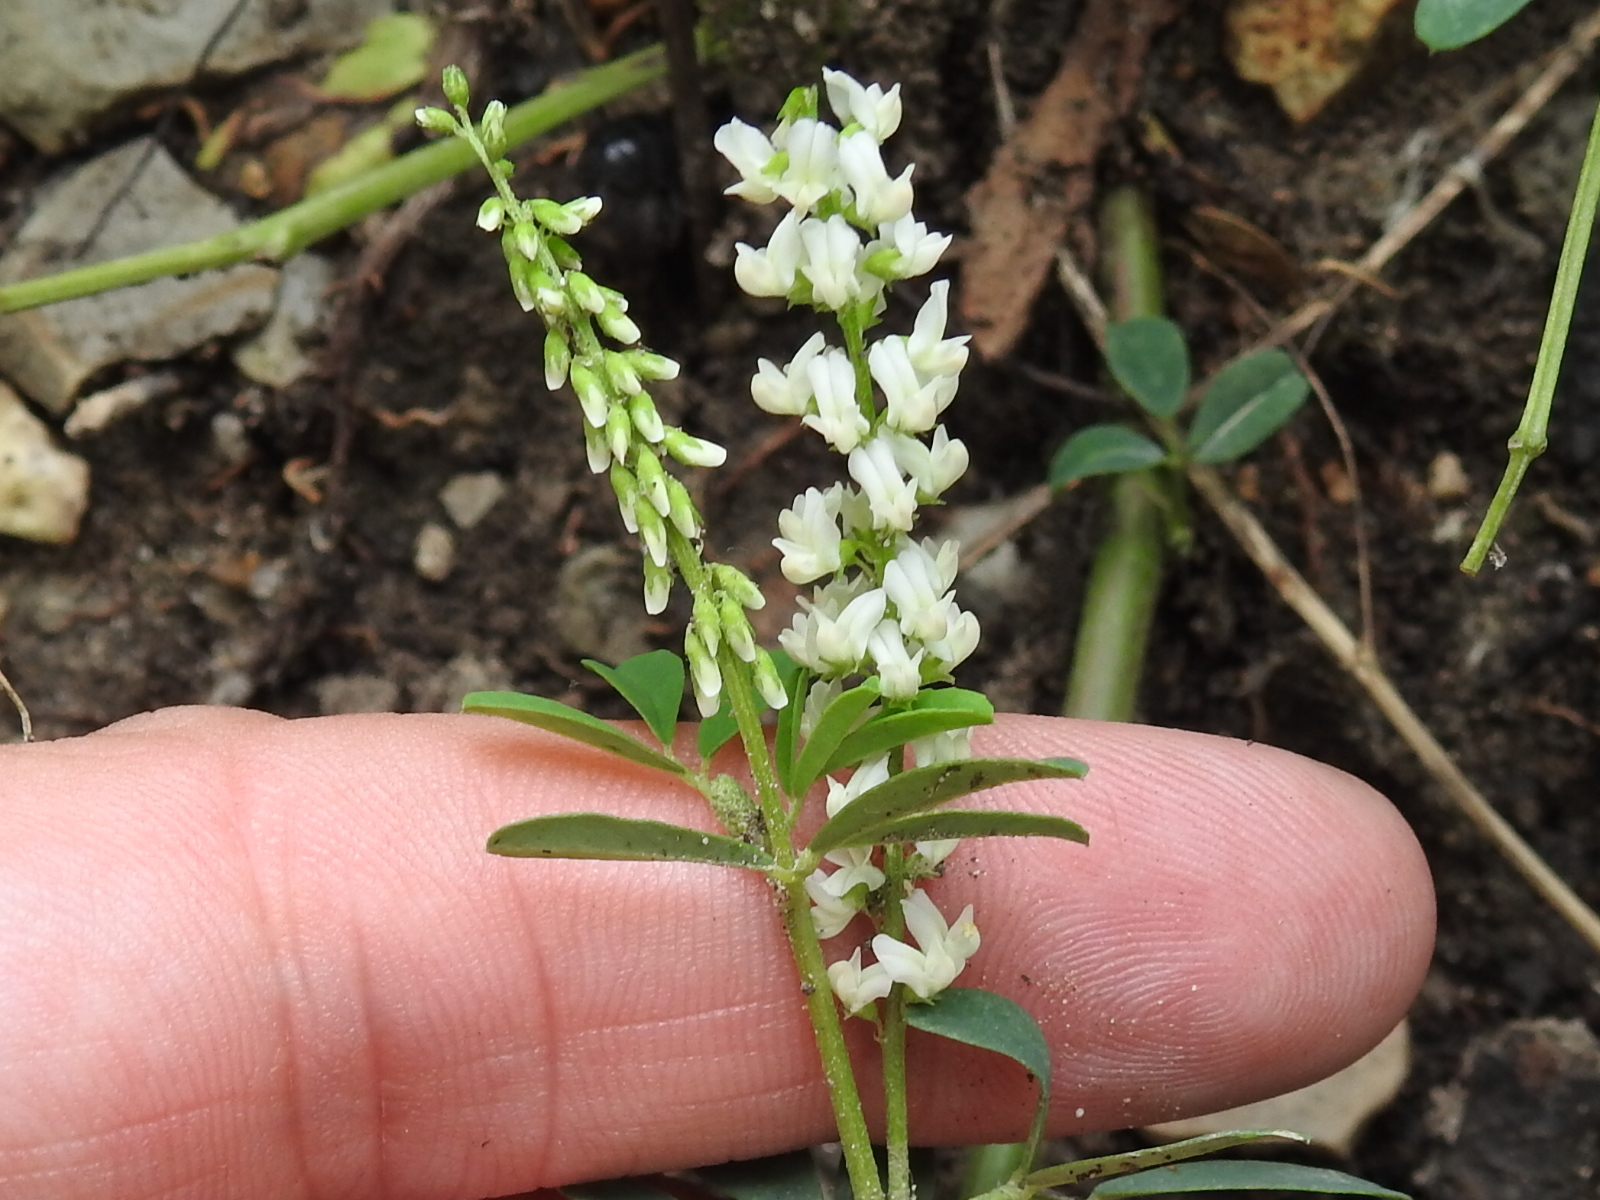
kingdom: Plantae
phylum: Tracheophyta
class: Magnoliopsida
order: Fabales
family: Fabaceae
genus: Melilotus
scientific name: Melilotus albus
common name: White melilot
